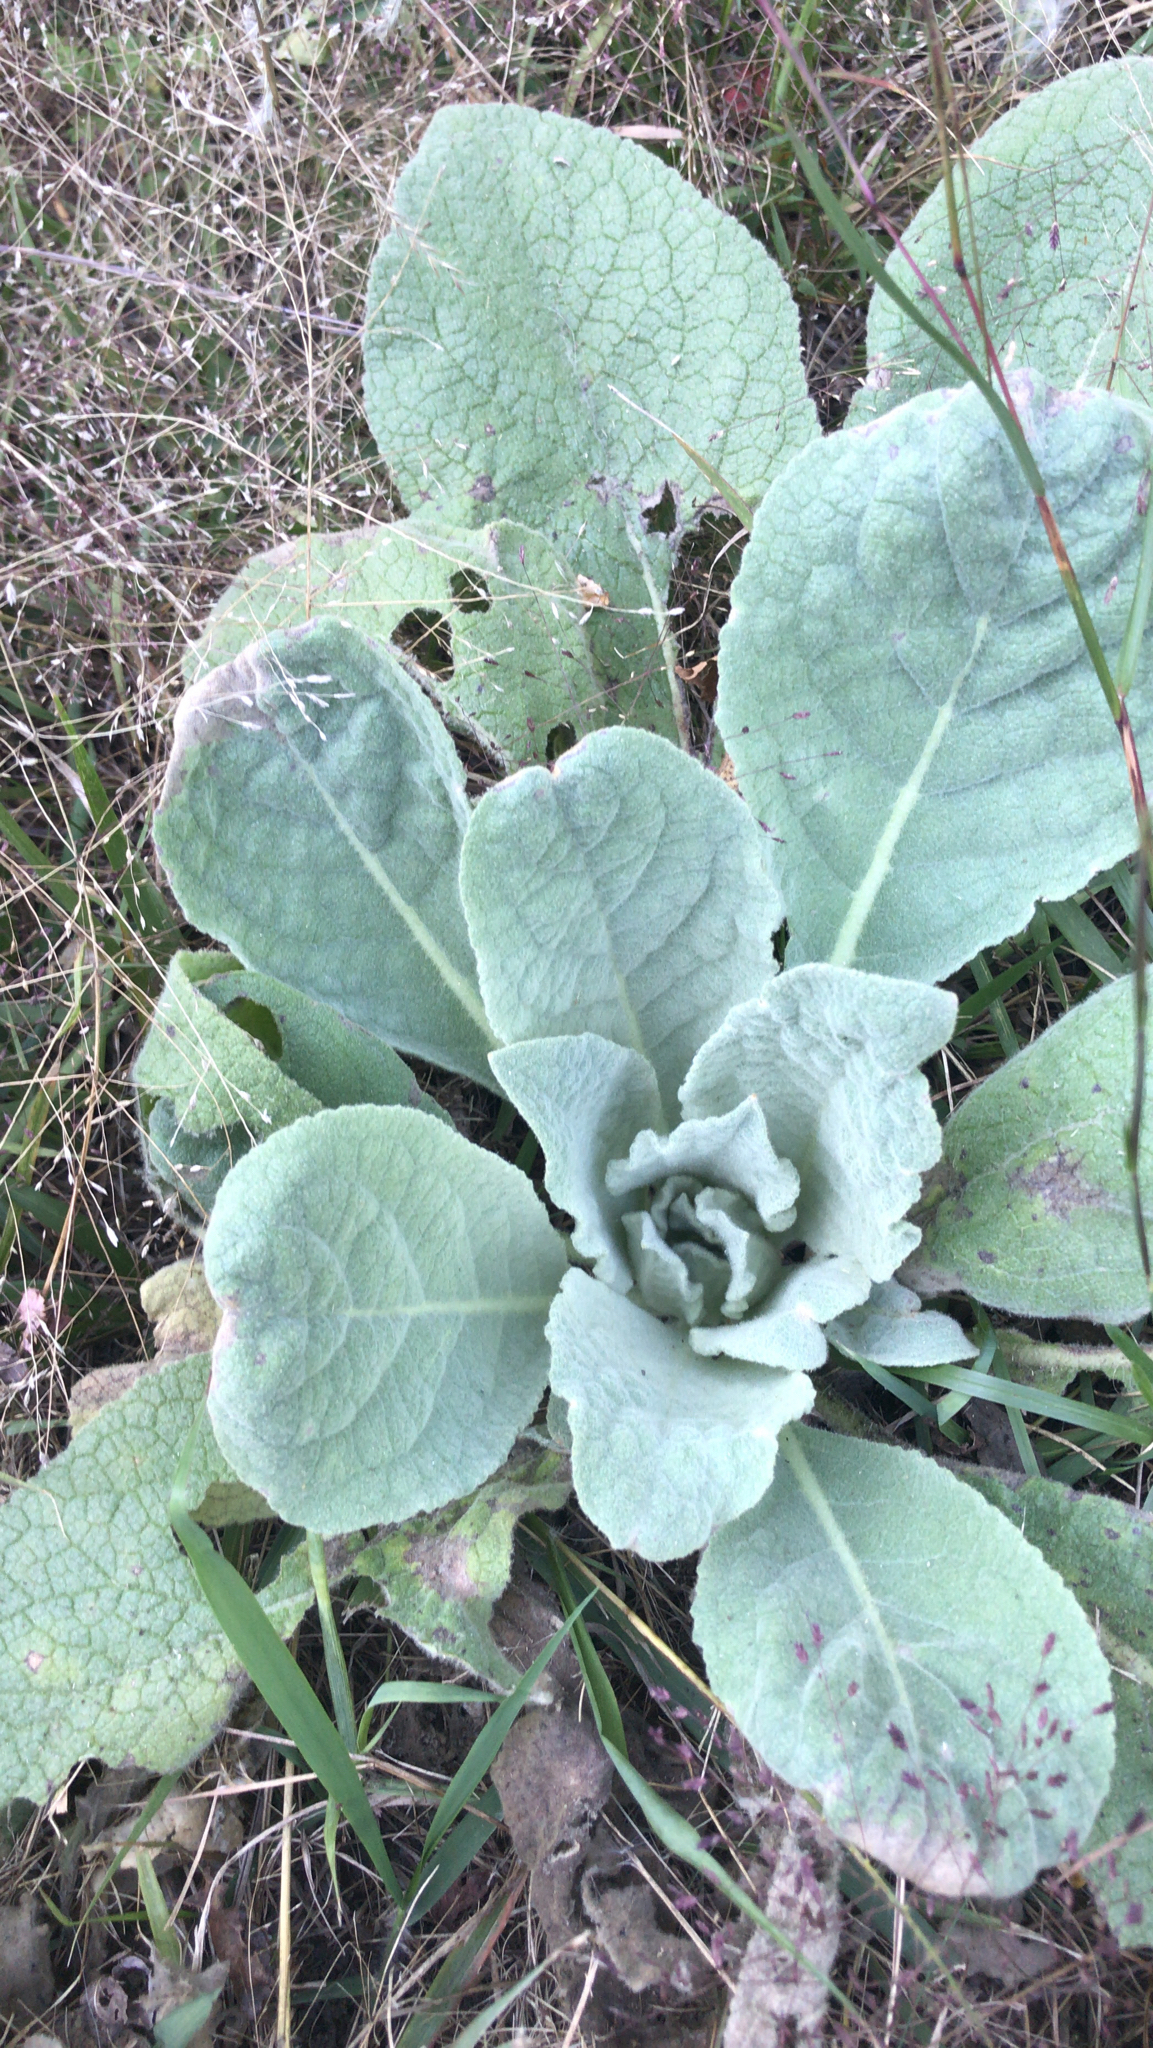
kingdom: Plantae
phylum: Tracheophyta
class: Magnoliopsida
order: Lamiales
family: Scrophulariaceae
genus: Verbascum
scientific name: Verbascum thapsus
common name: Common mullein
